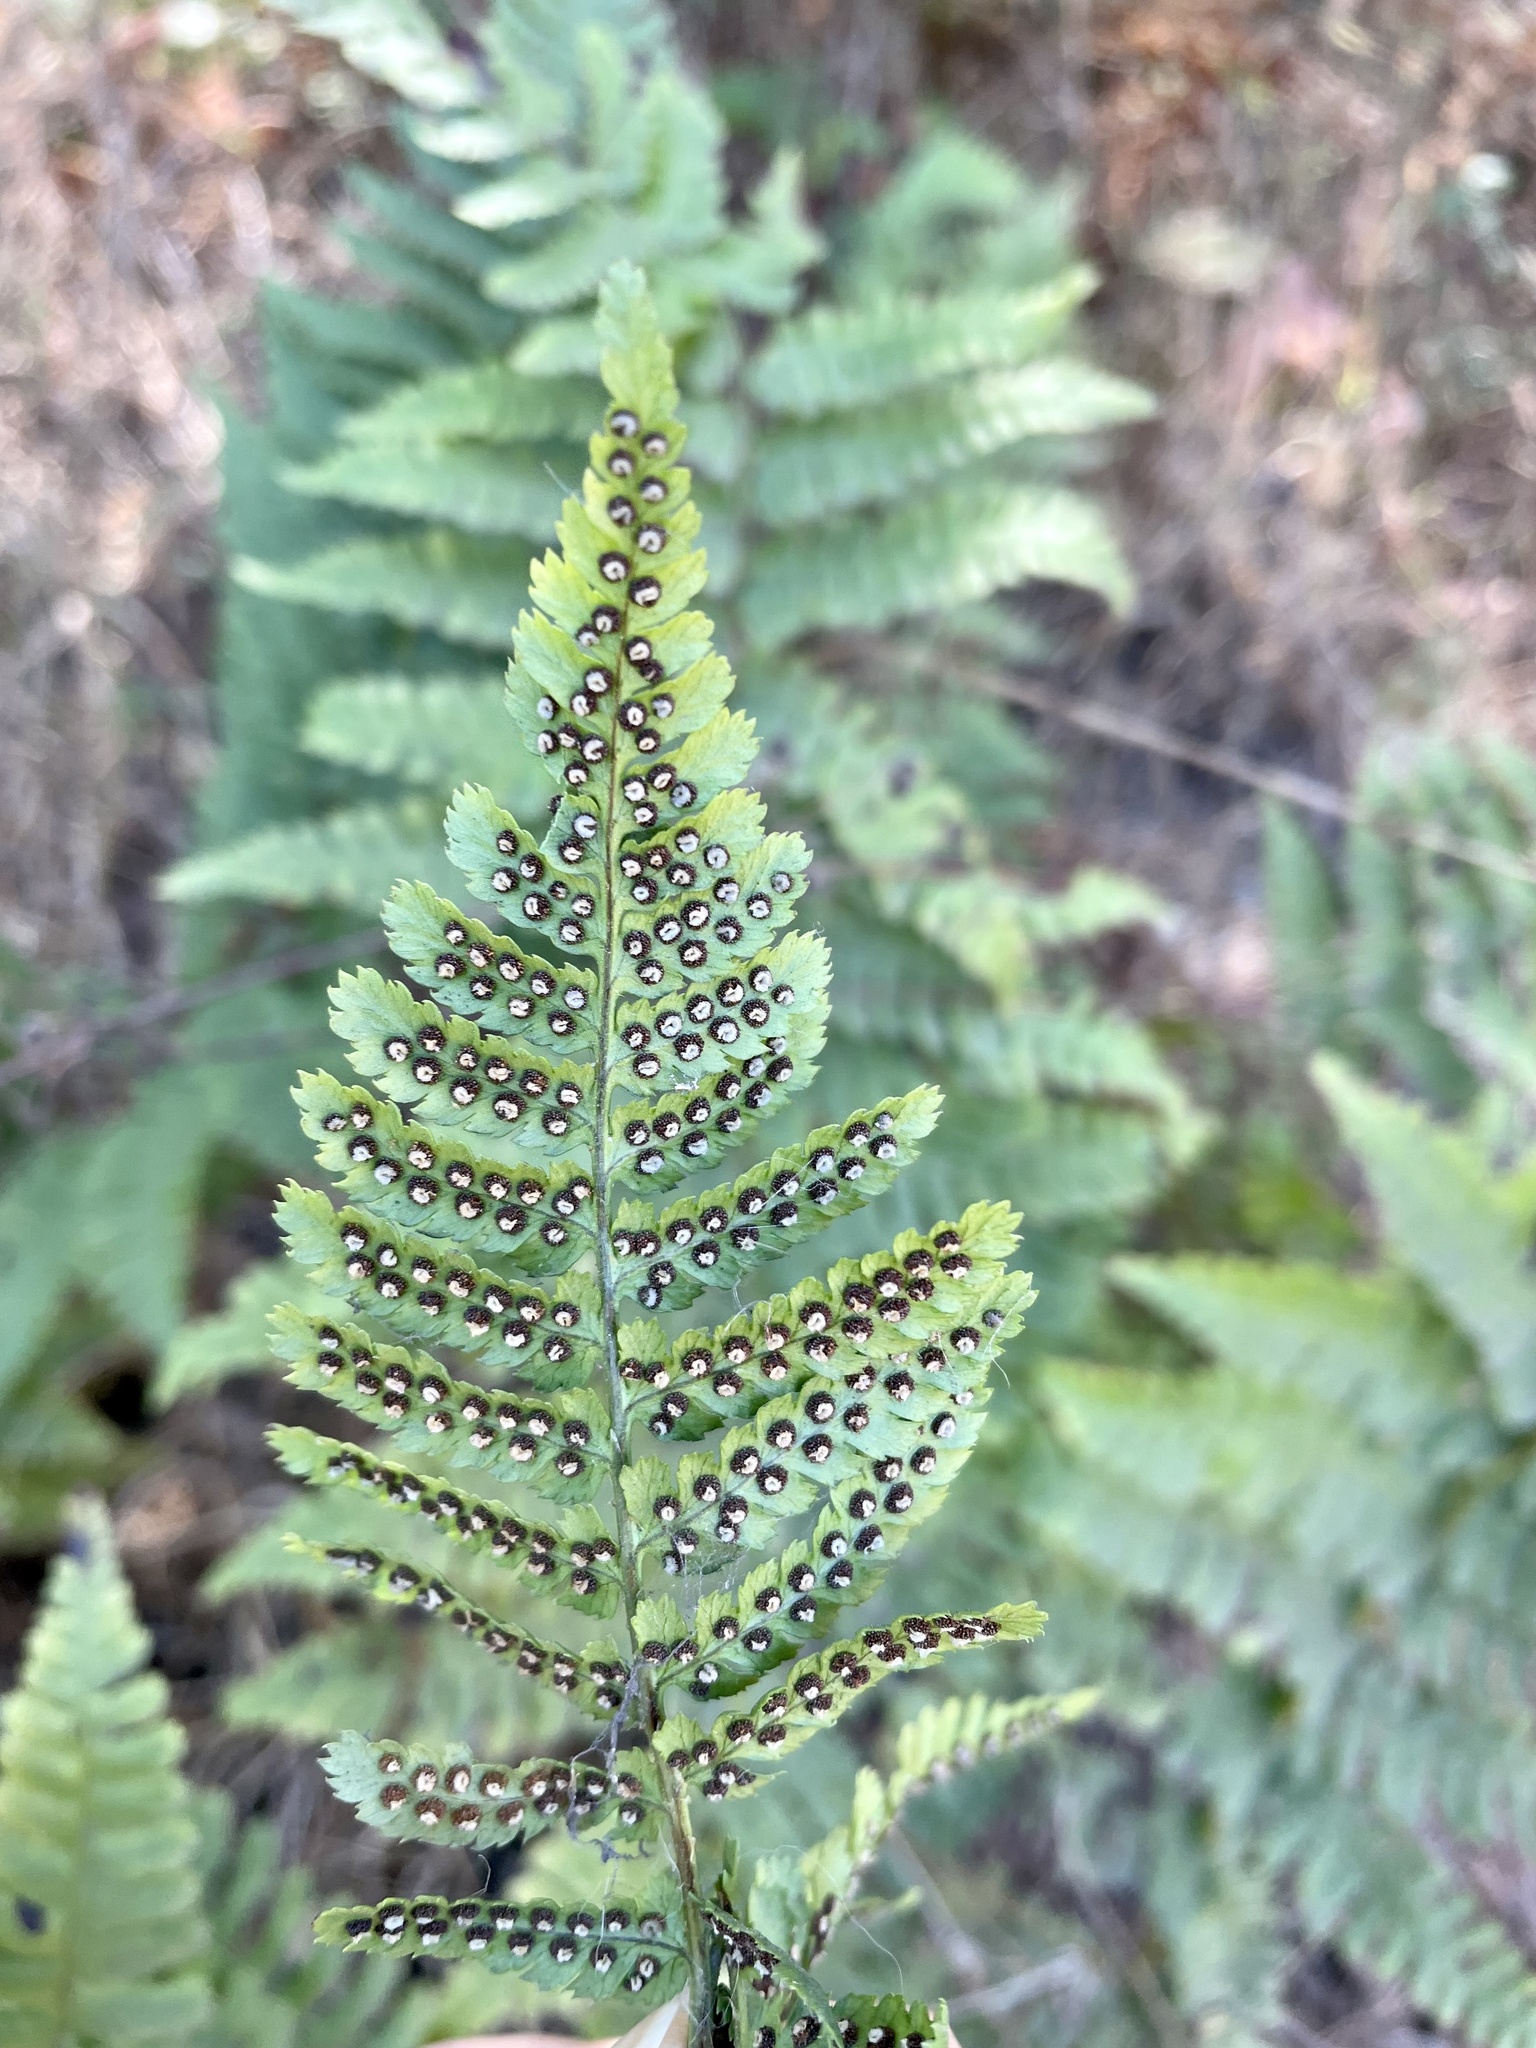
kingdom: Plantae
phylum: Tracheophyta
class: Polypodiopsida
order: Polypodiales
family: Dryopteridaceae
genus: Dryopteris
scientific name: Dryopteris arguta
